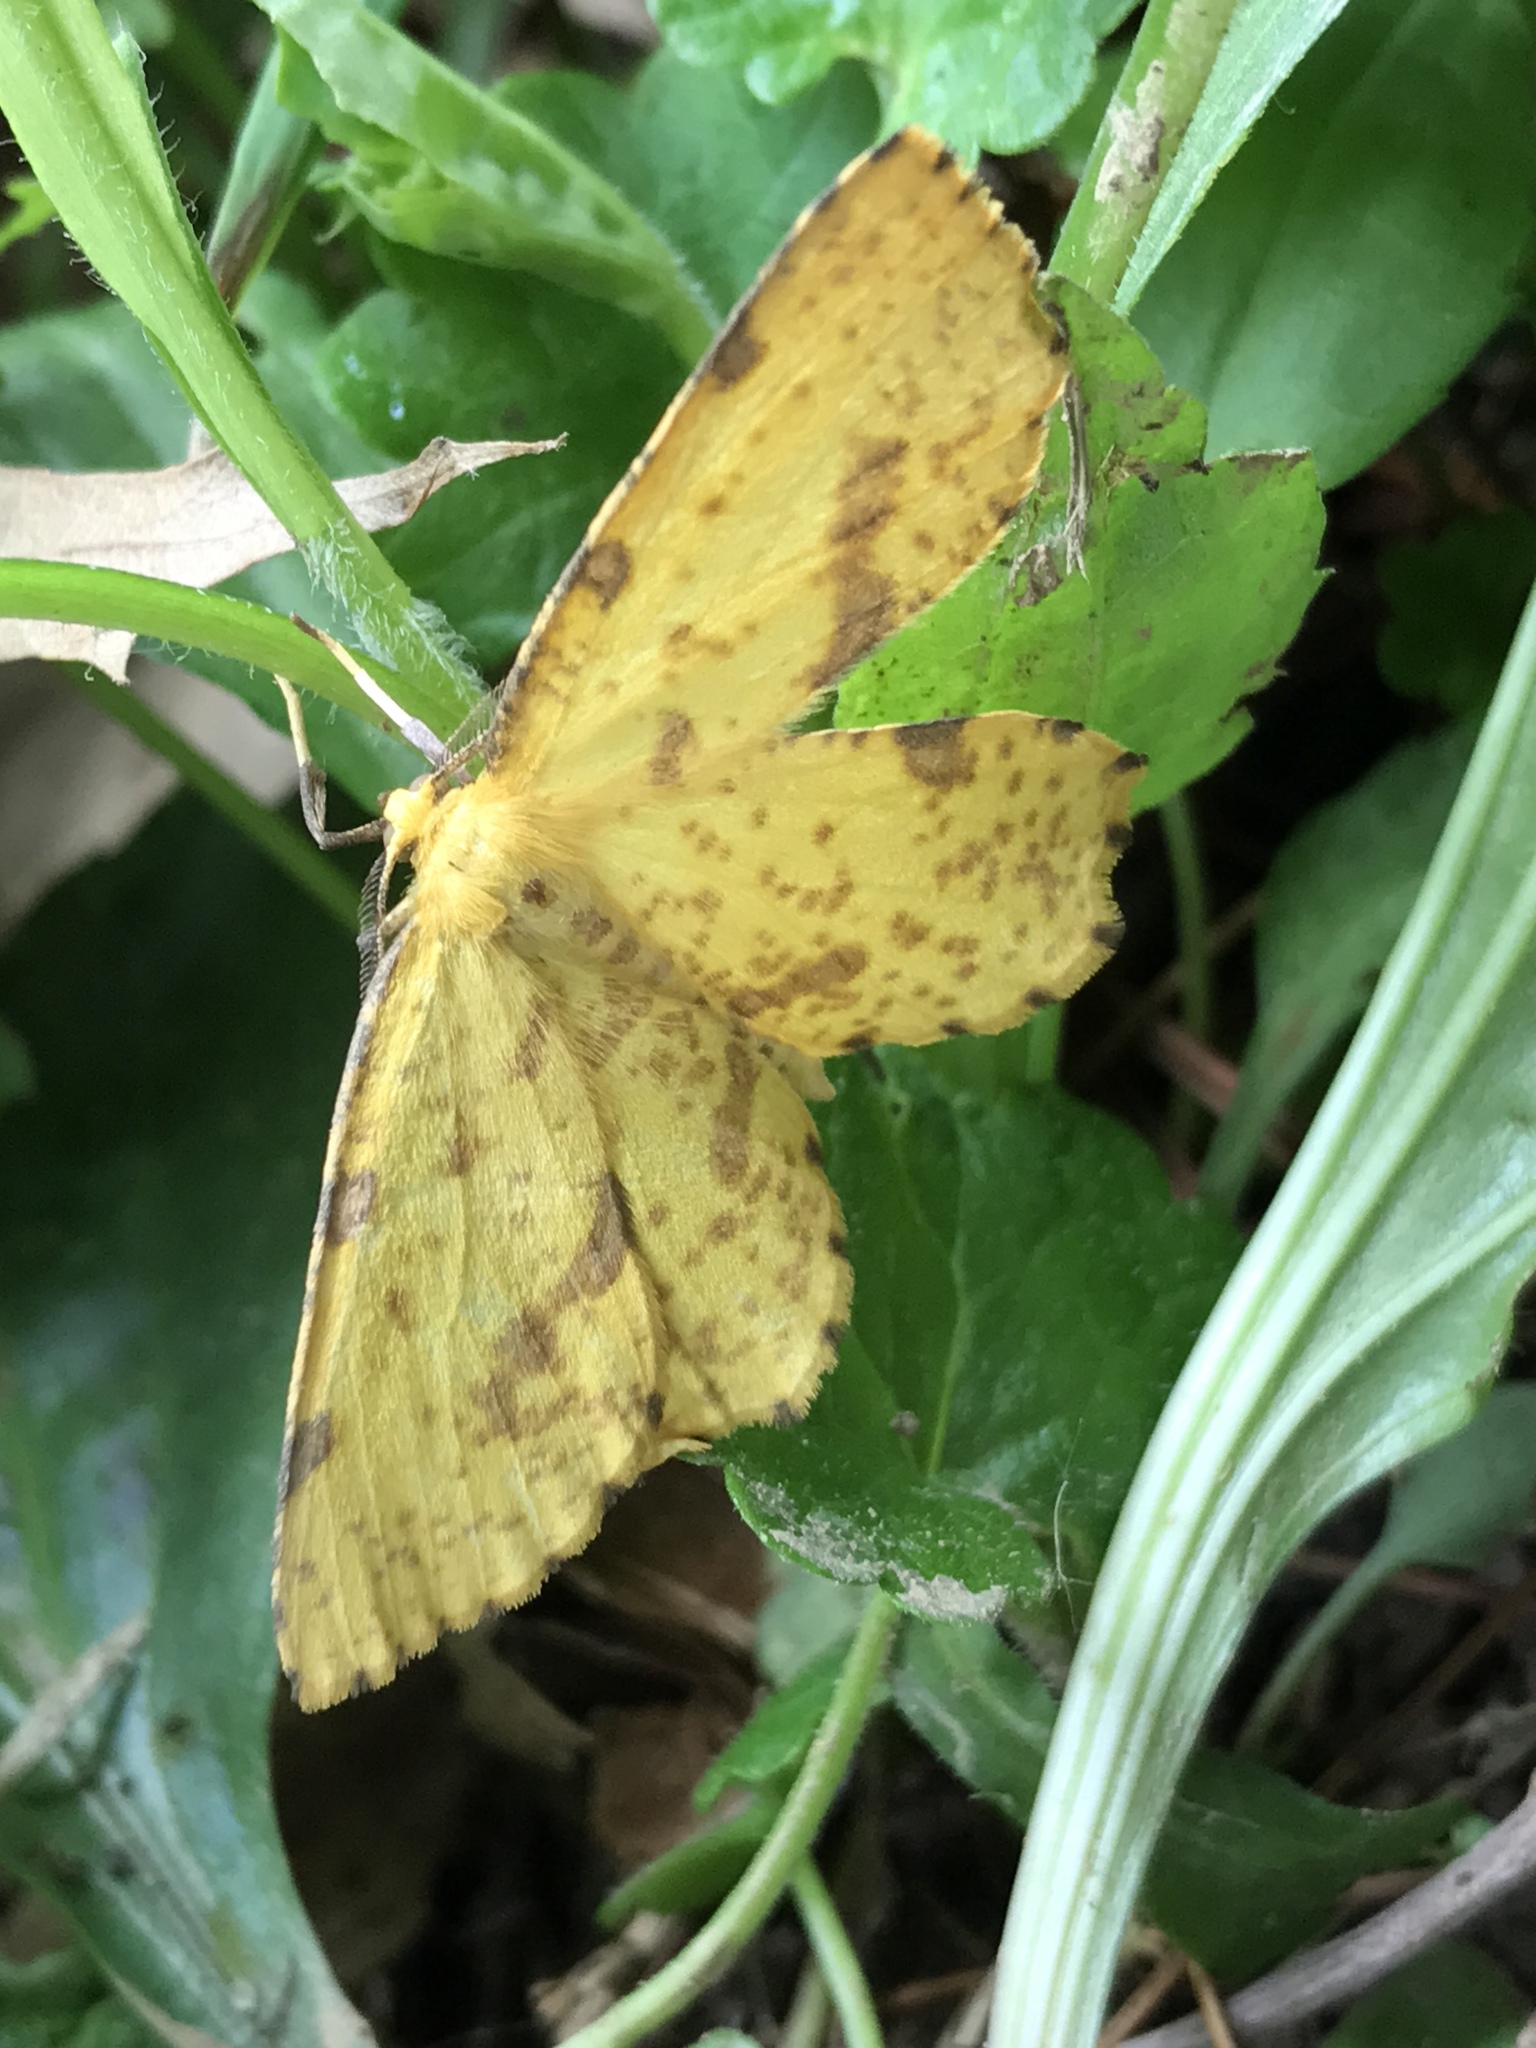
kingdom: Animalia
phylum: Arthropoda
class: Insecta
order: Lepidoptera
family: Geometridae
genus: Xanthotype
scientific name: Xanthotype
